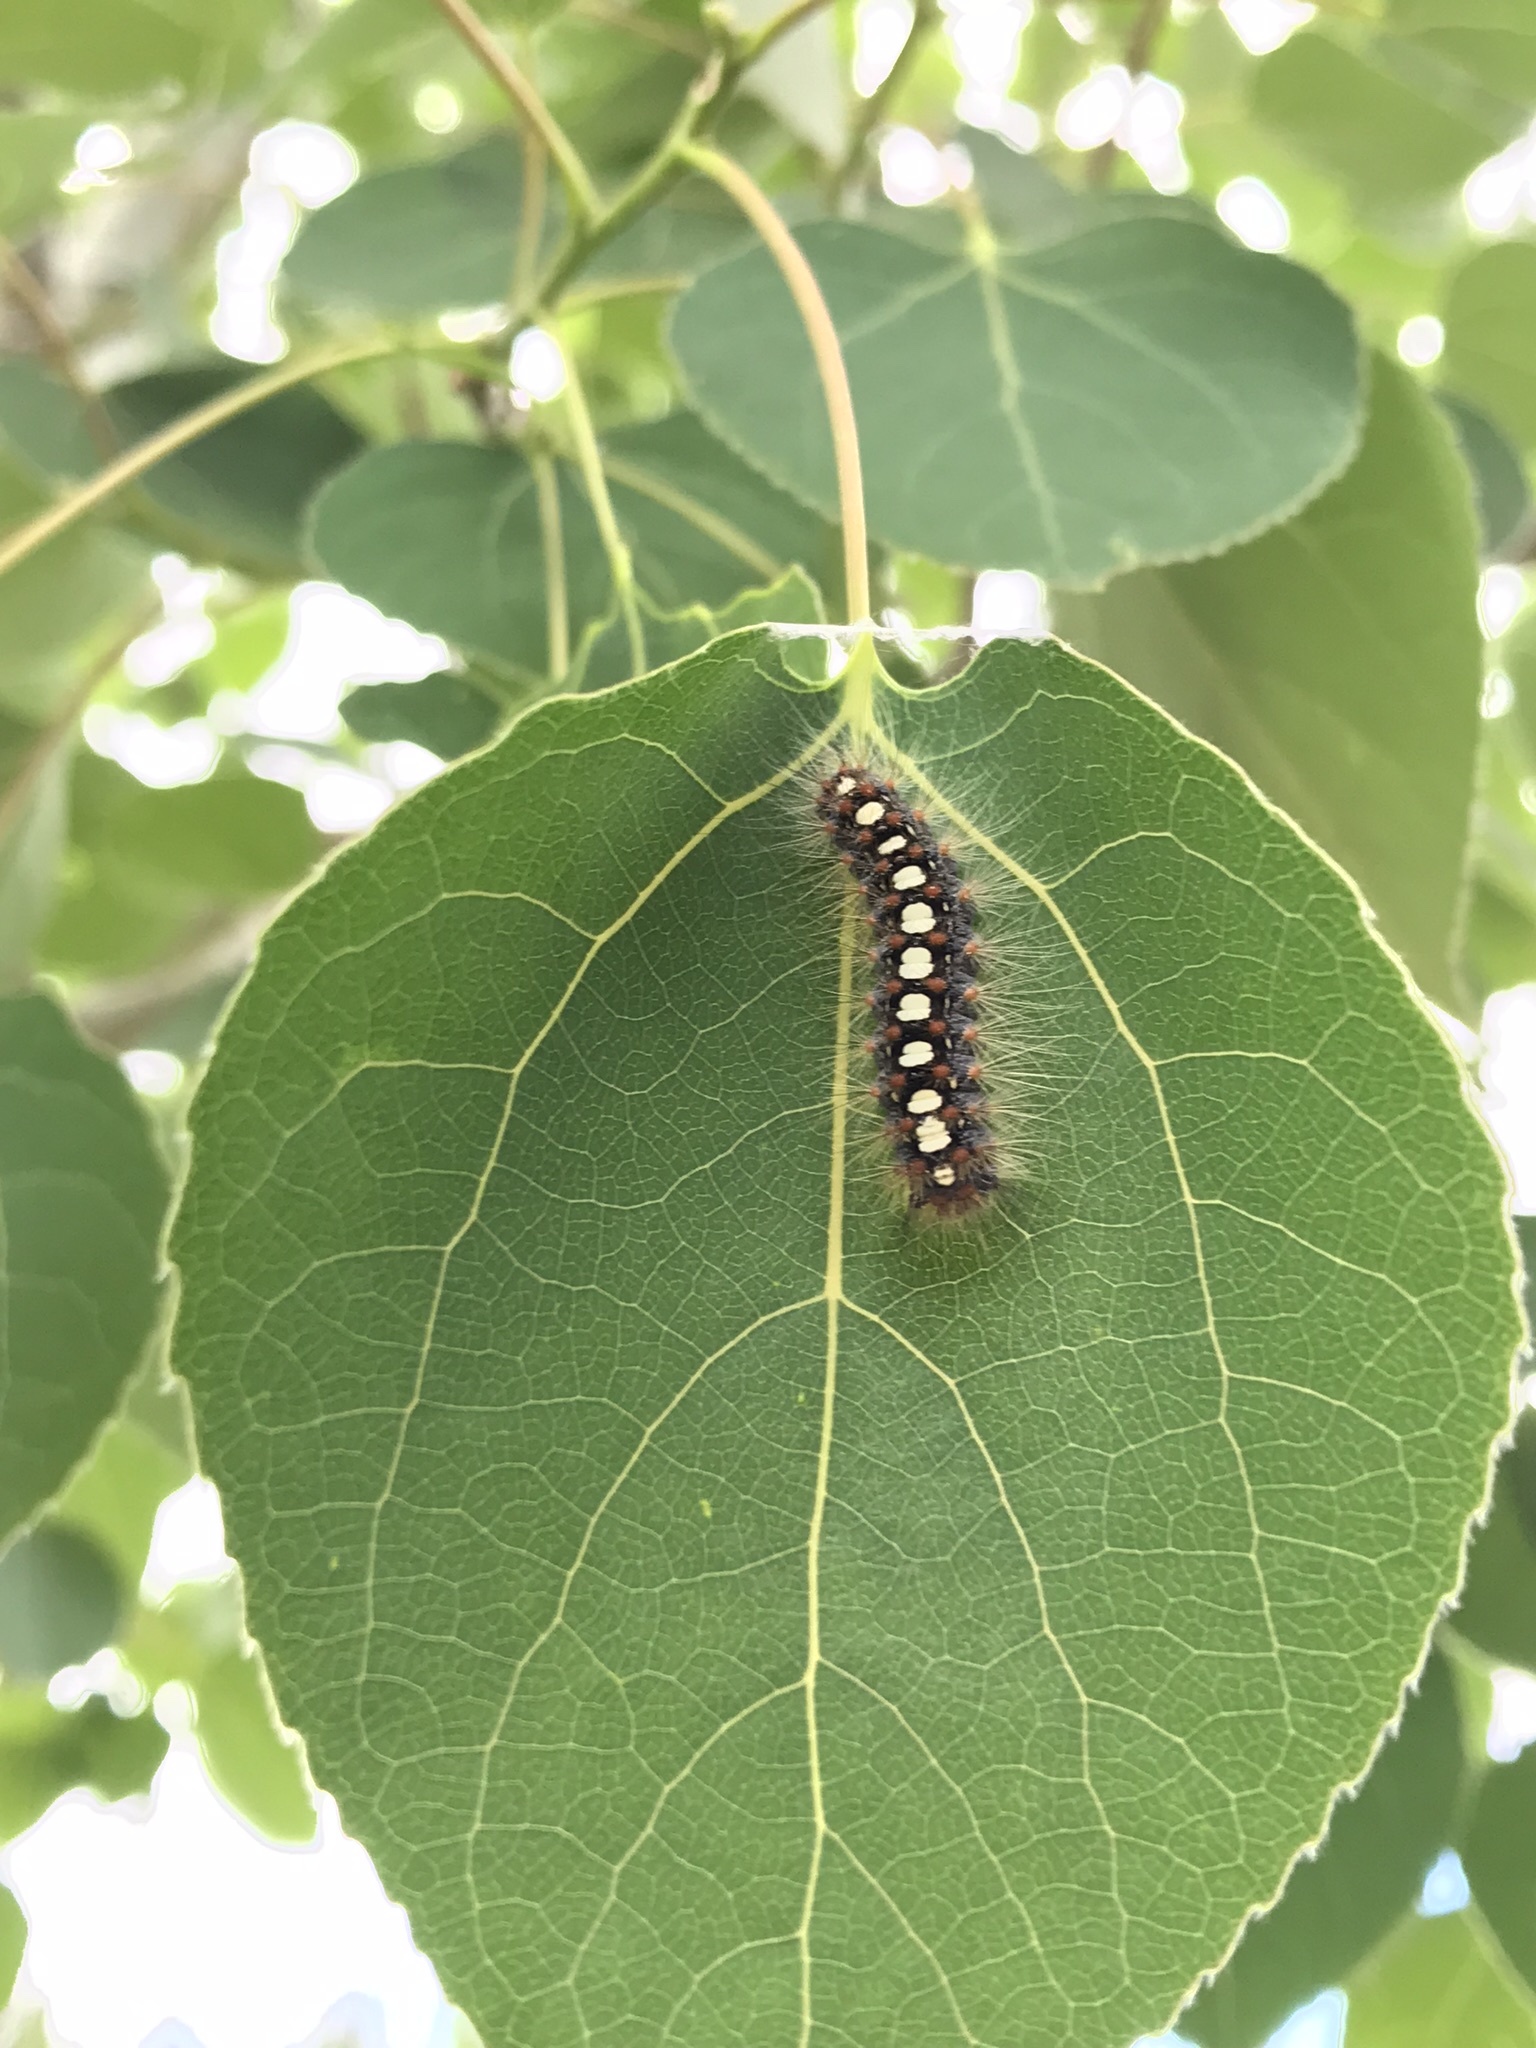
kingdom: Animalia
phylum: Arthropoda
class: Insecta
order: Lepidoptera
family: Erebidae
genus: Leucoma
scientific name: Leucoma salicis
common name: White satin moth
